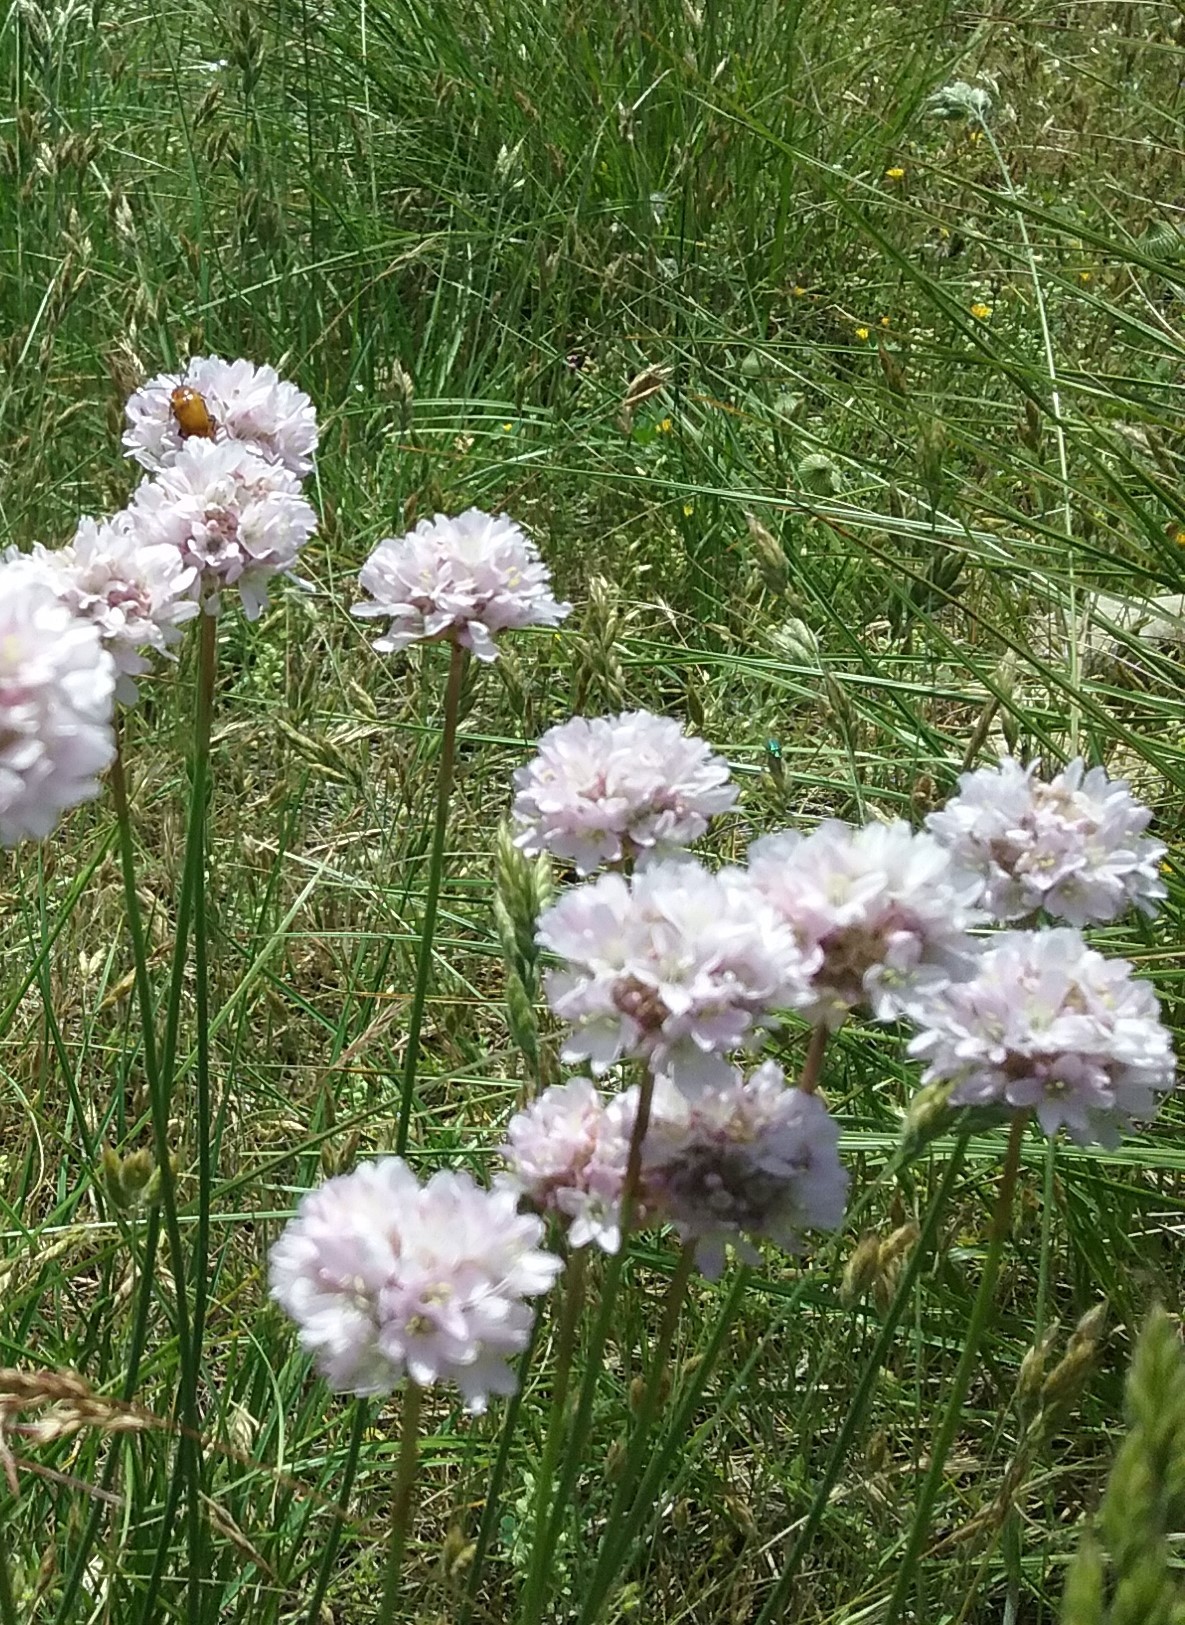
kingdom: Plantae
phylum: Tracheophyta
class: Magnoliopsida
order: Caryophyllales
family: Plumbaginaceae
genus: Armeria
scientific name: Armeria arenaria
